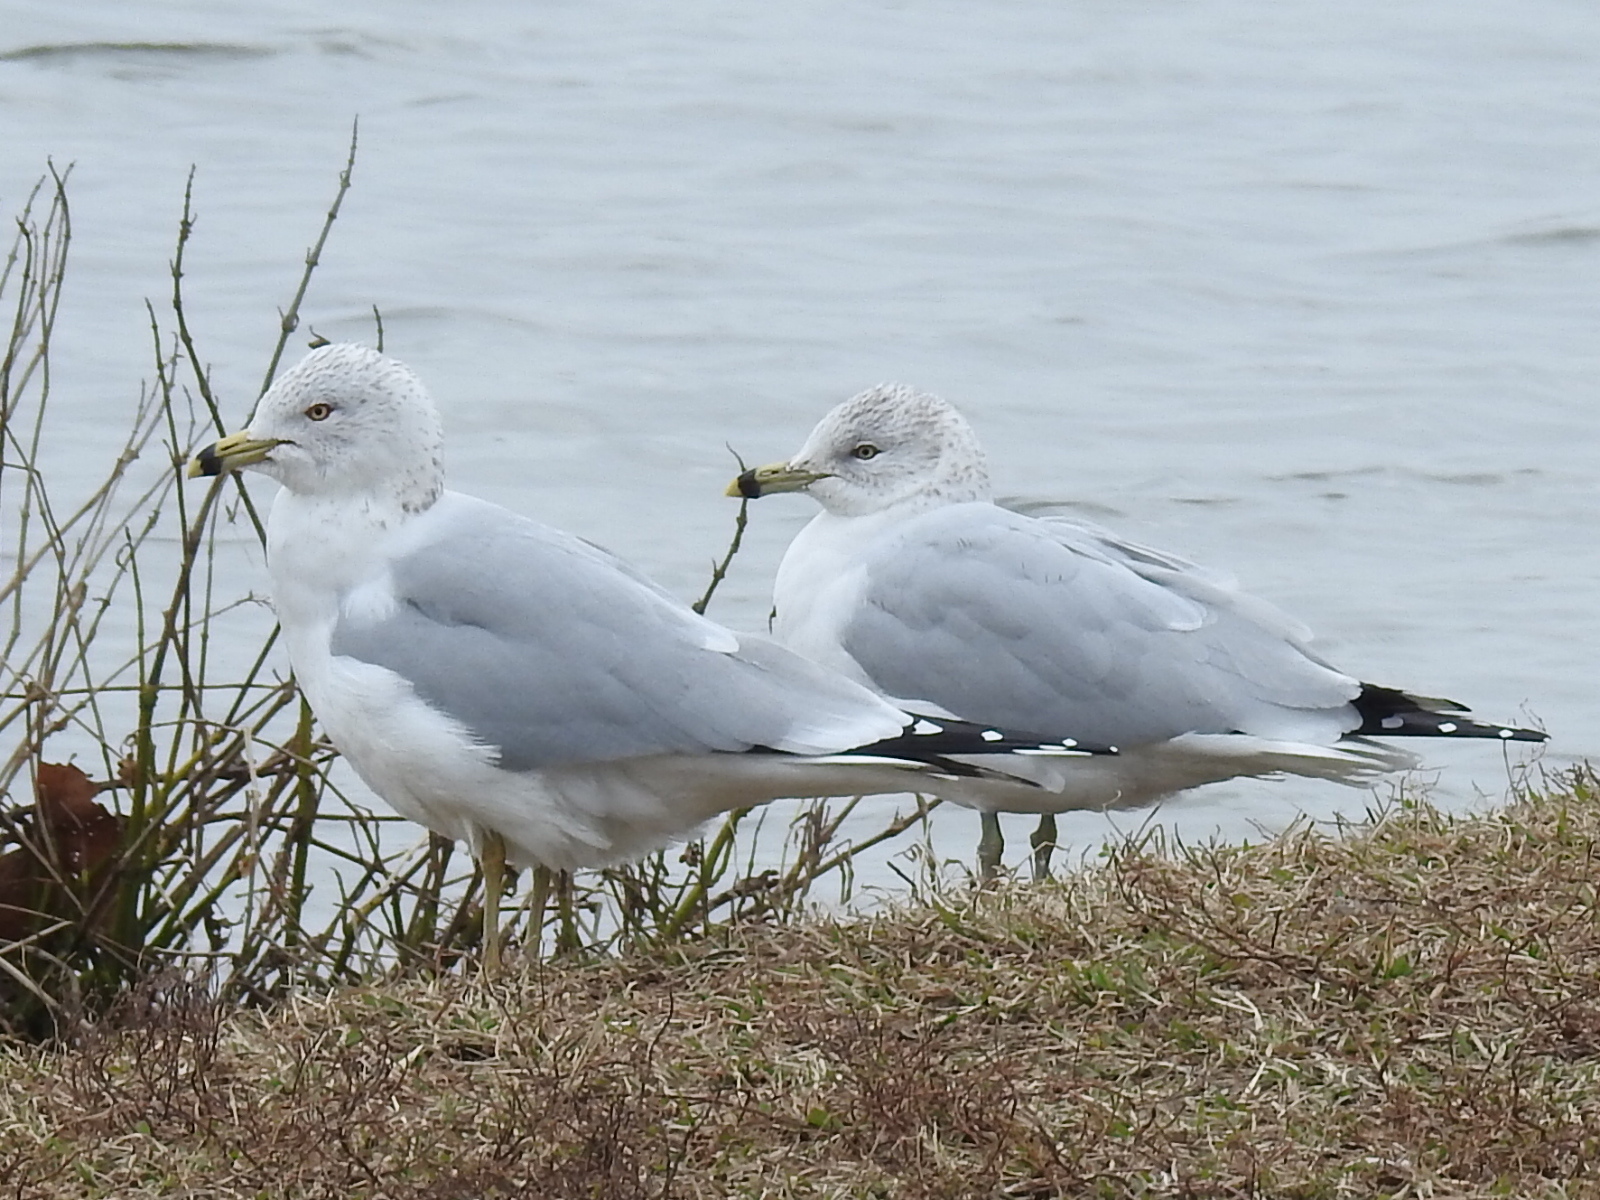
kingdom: Animalia
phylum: Chordata
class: Aves
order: Charadriiformes
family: Laridae
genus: Larus
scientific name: Larus delawarensis
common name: Ring-billed gull
